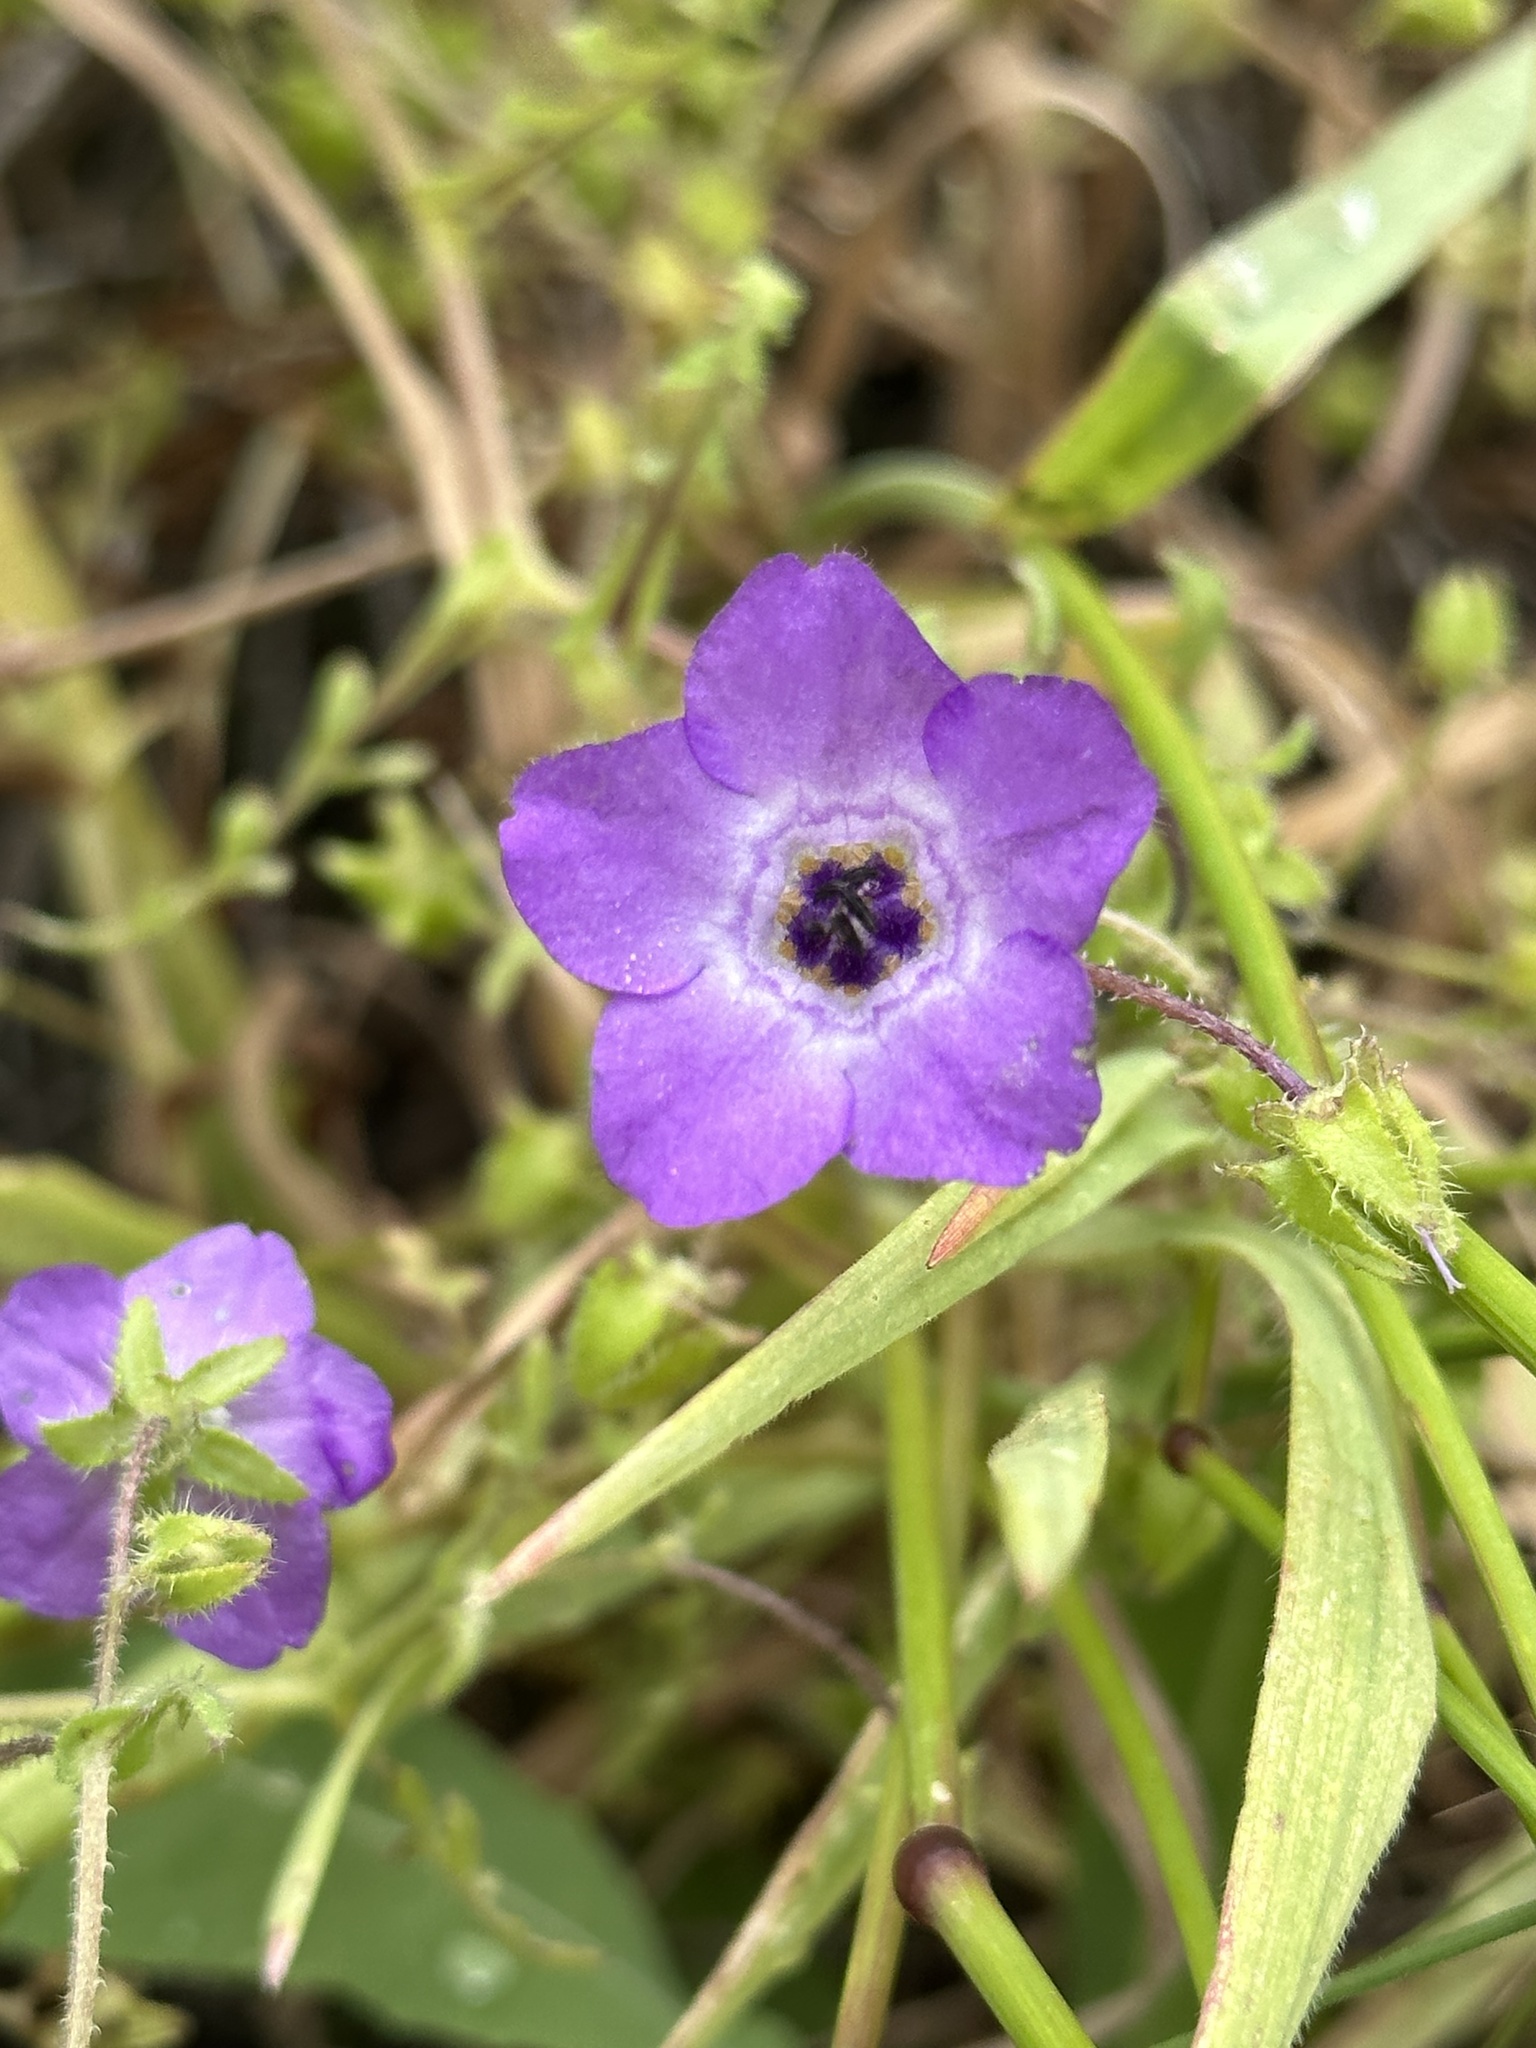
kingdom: Plantae
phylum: Tracheophyta
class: Magnoliopsida
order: Boraginales
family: Hydrophyllaceae
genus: Pholistoma
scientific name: Pholistoma auritum
